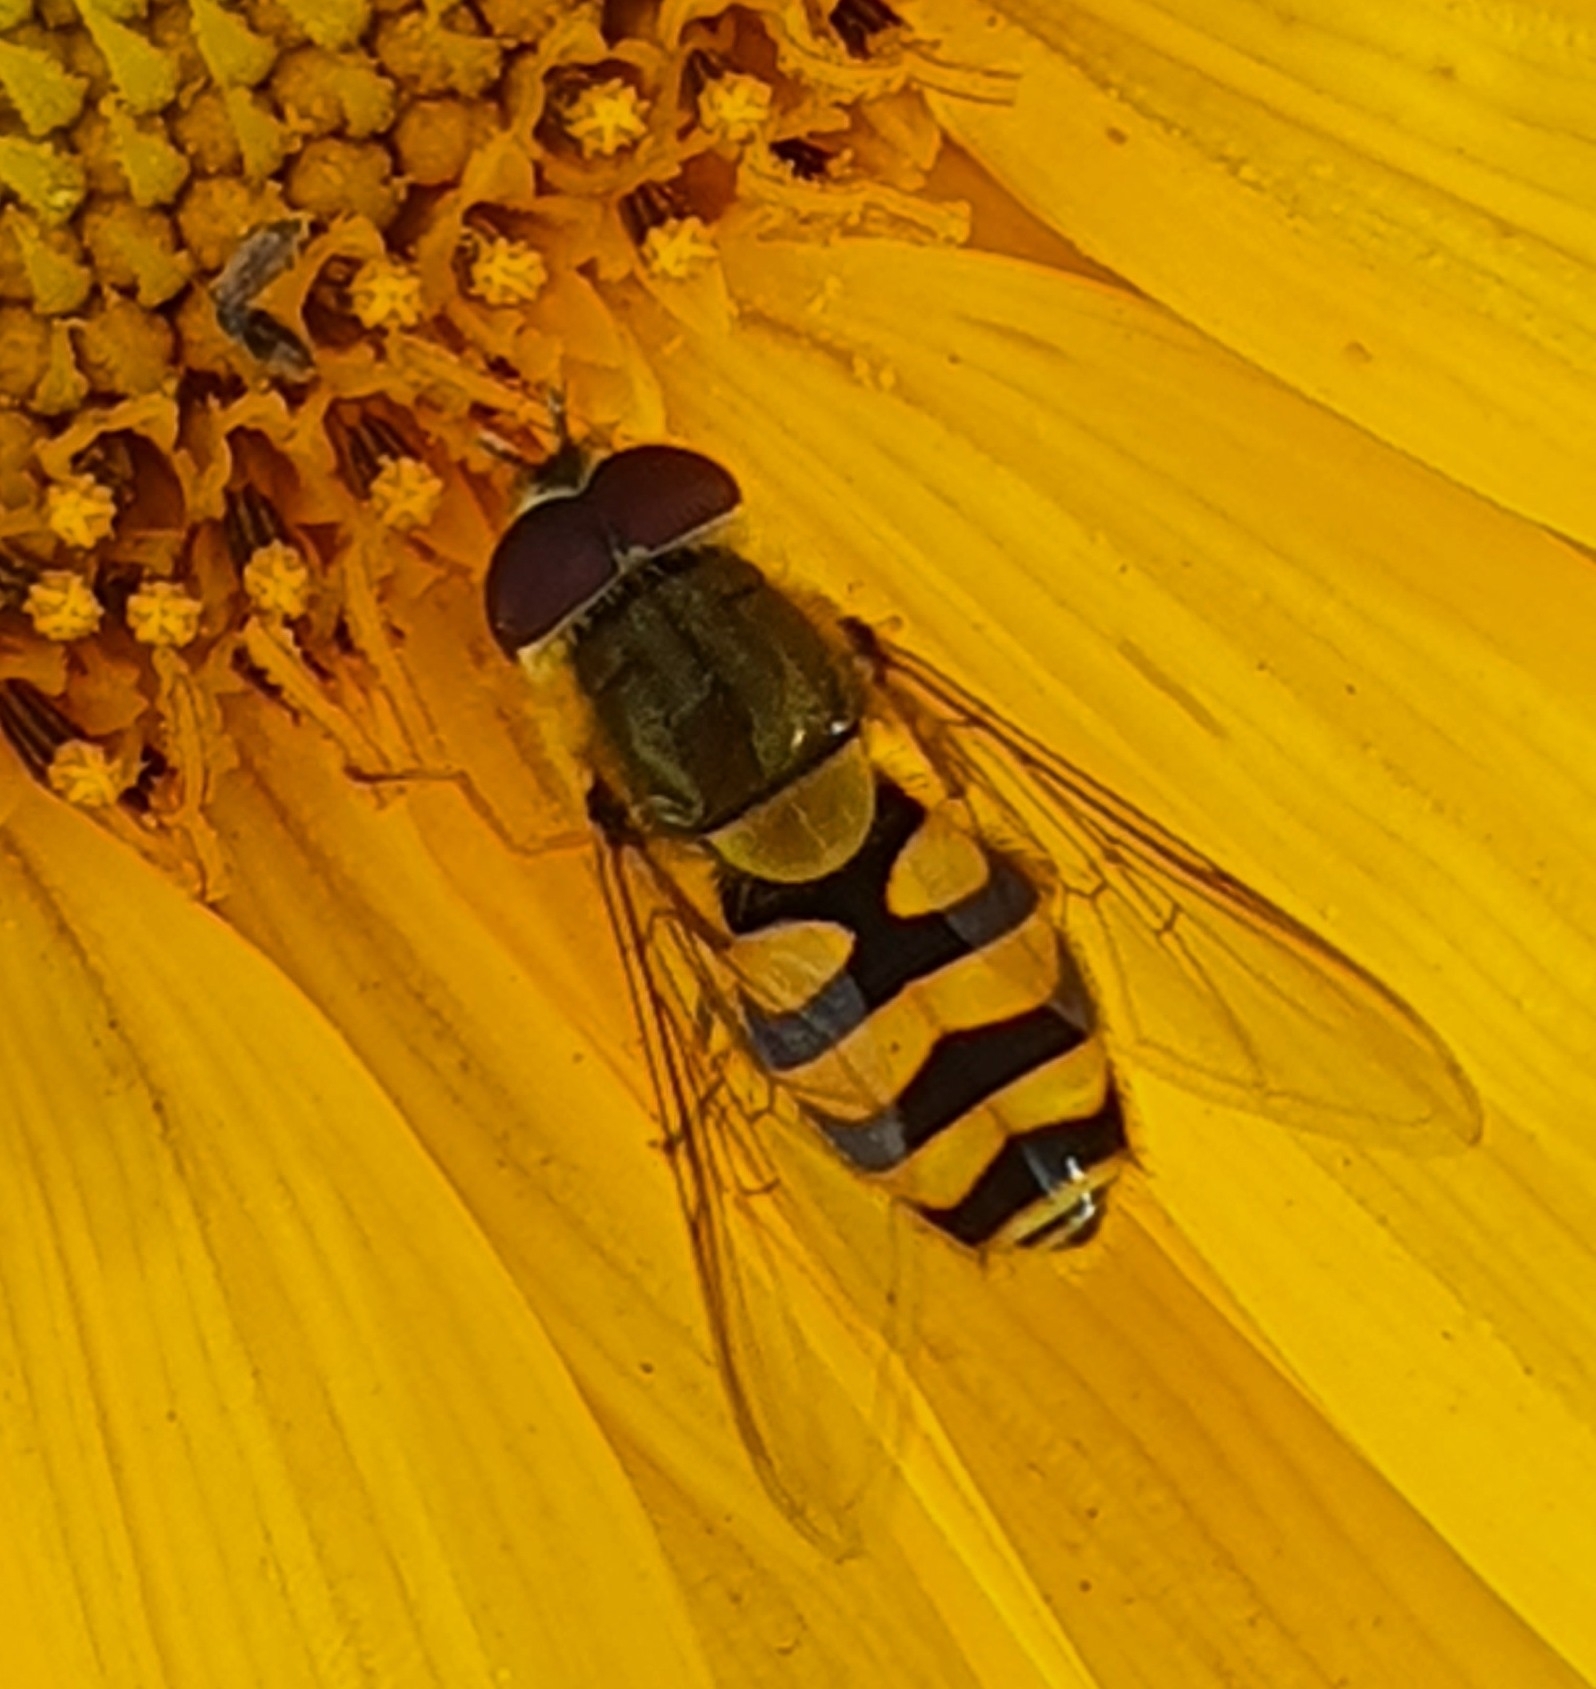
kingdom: Animalia
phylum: Arthropoda
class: Insecta
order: Diptera
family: Syrphidae
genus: Syrphus
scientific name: Syrphus
